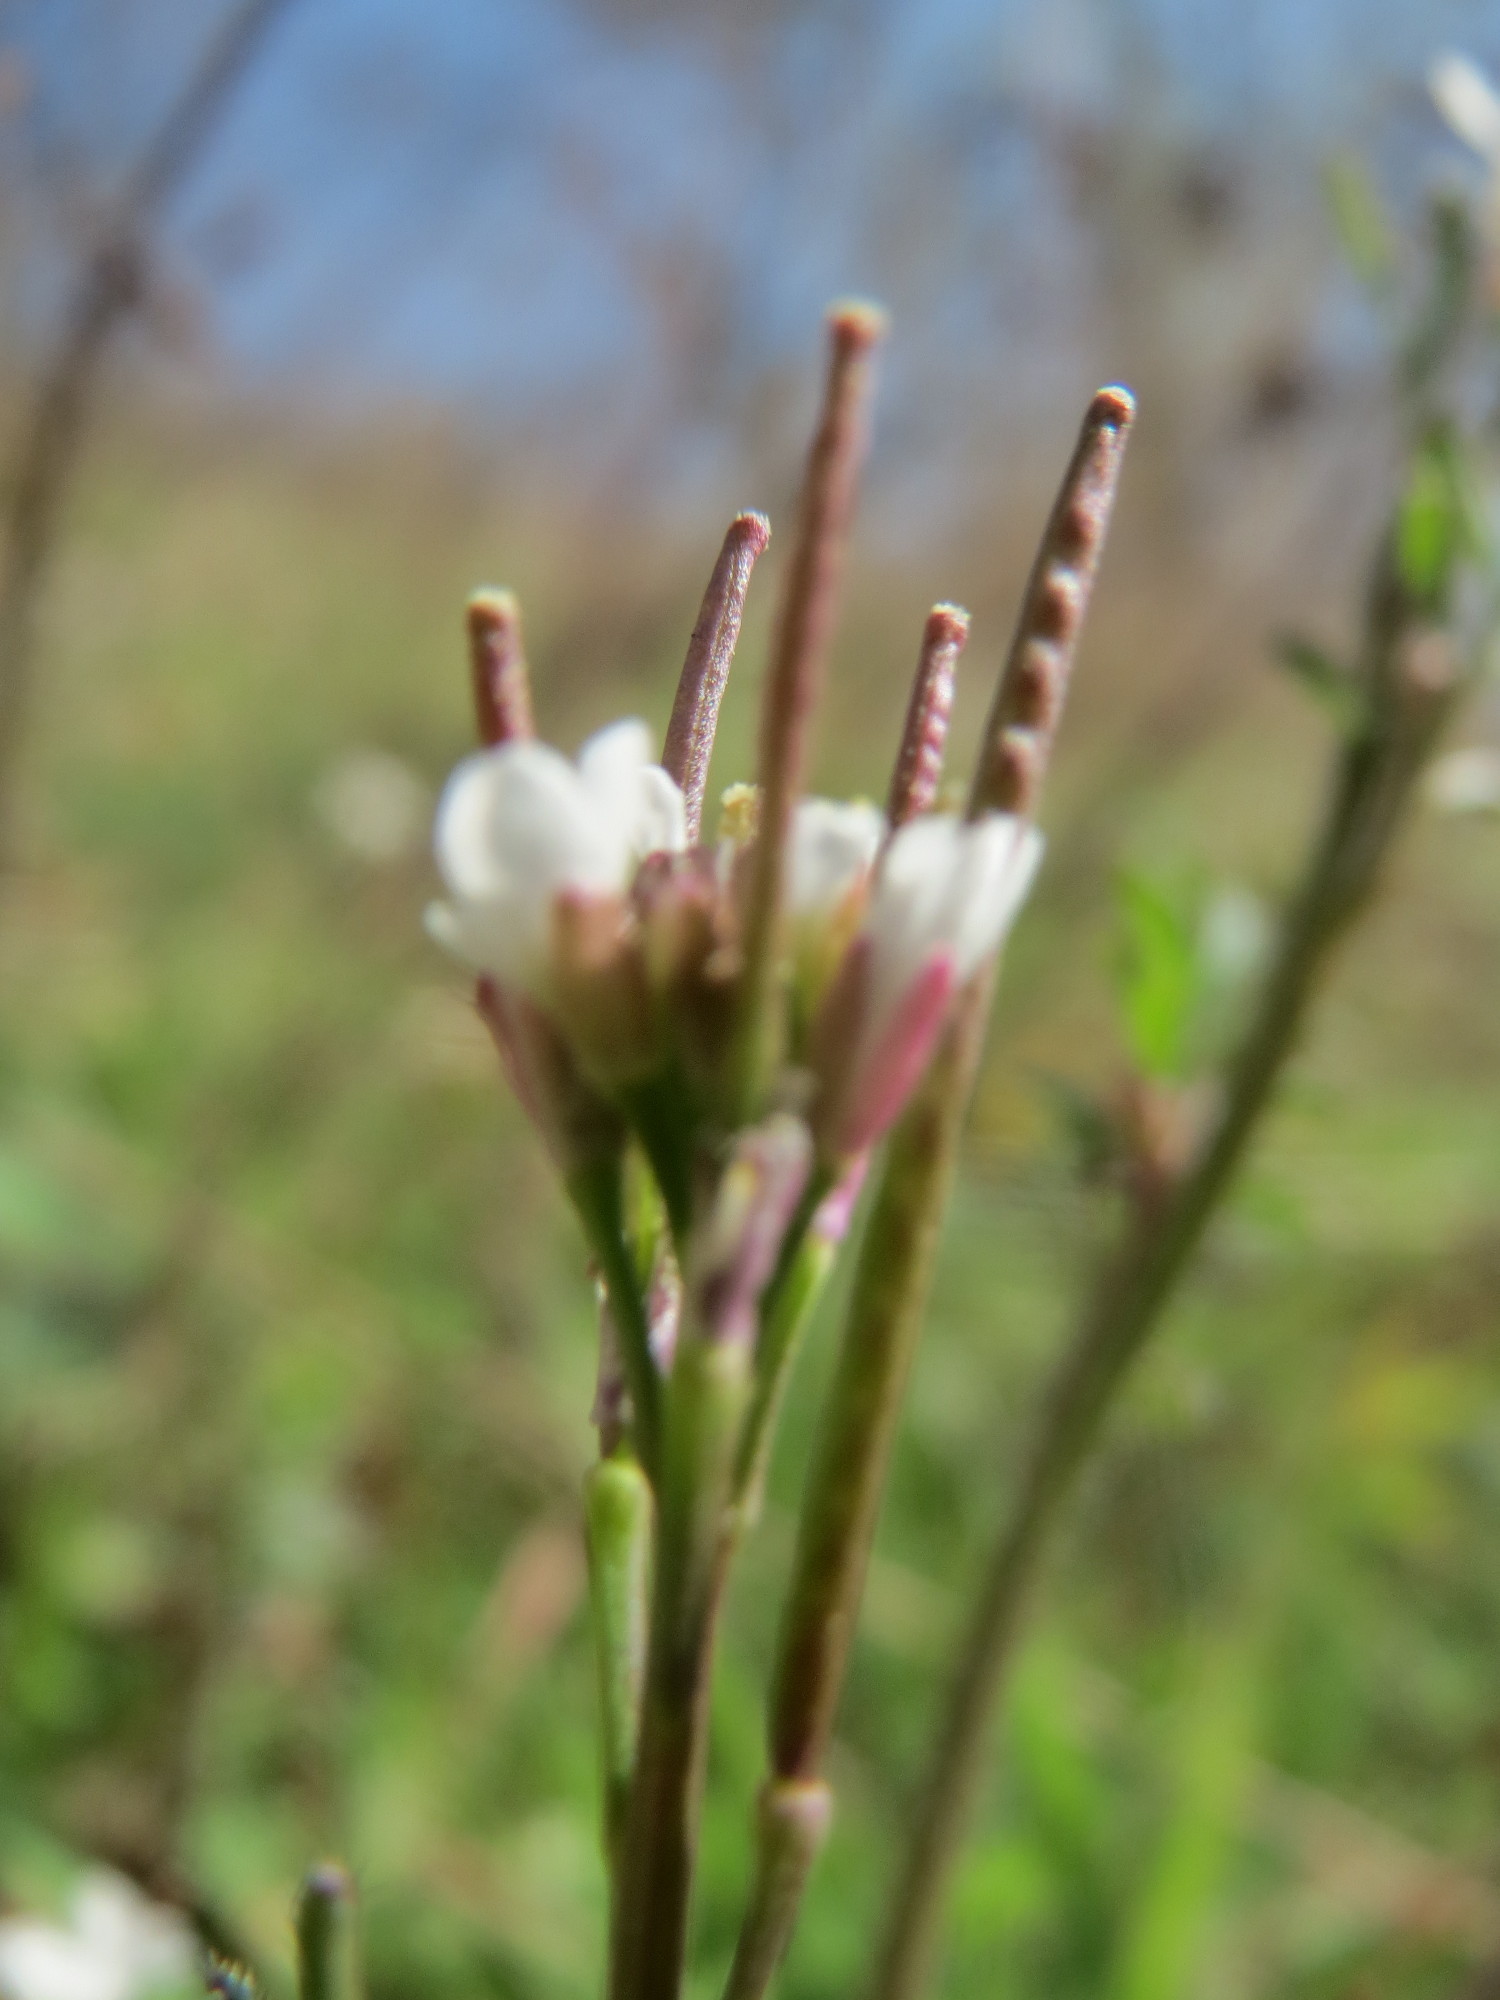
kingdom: Plantae
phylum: Tracheophyta
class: Magnoliopsida
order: Brassicales
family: Brassicaceae
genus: Cardamine
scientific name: Cardamine hirsuta
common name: Hairy bittercress
